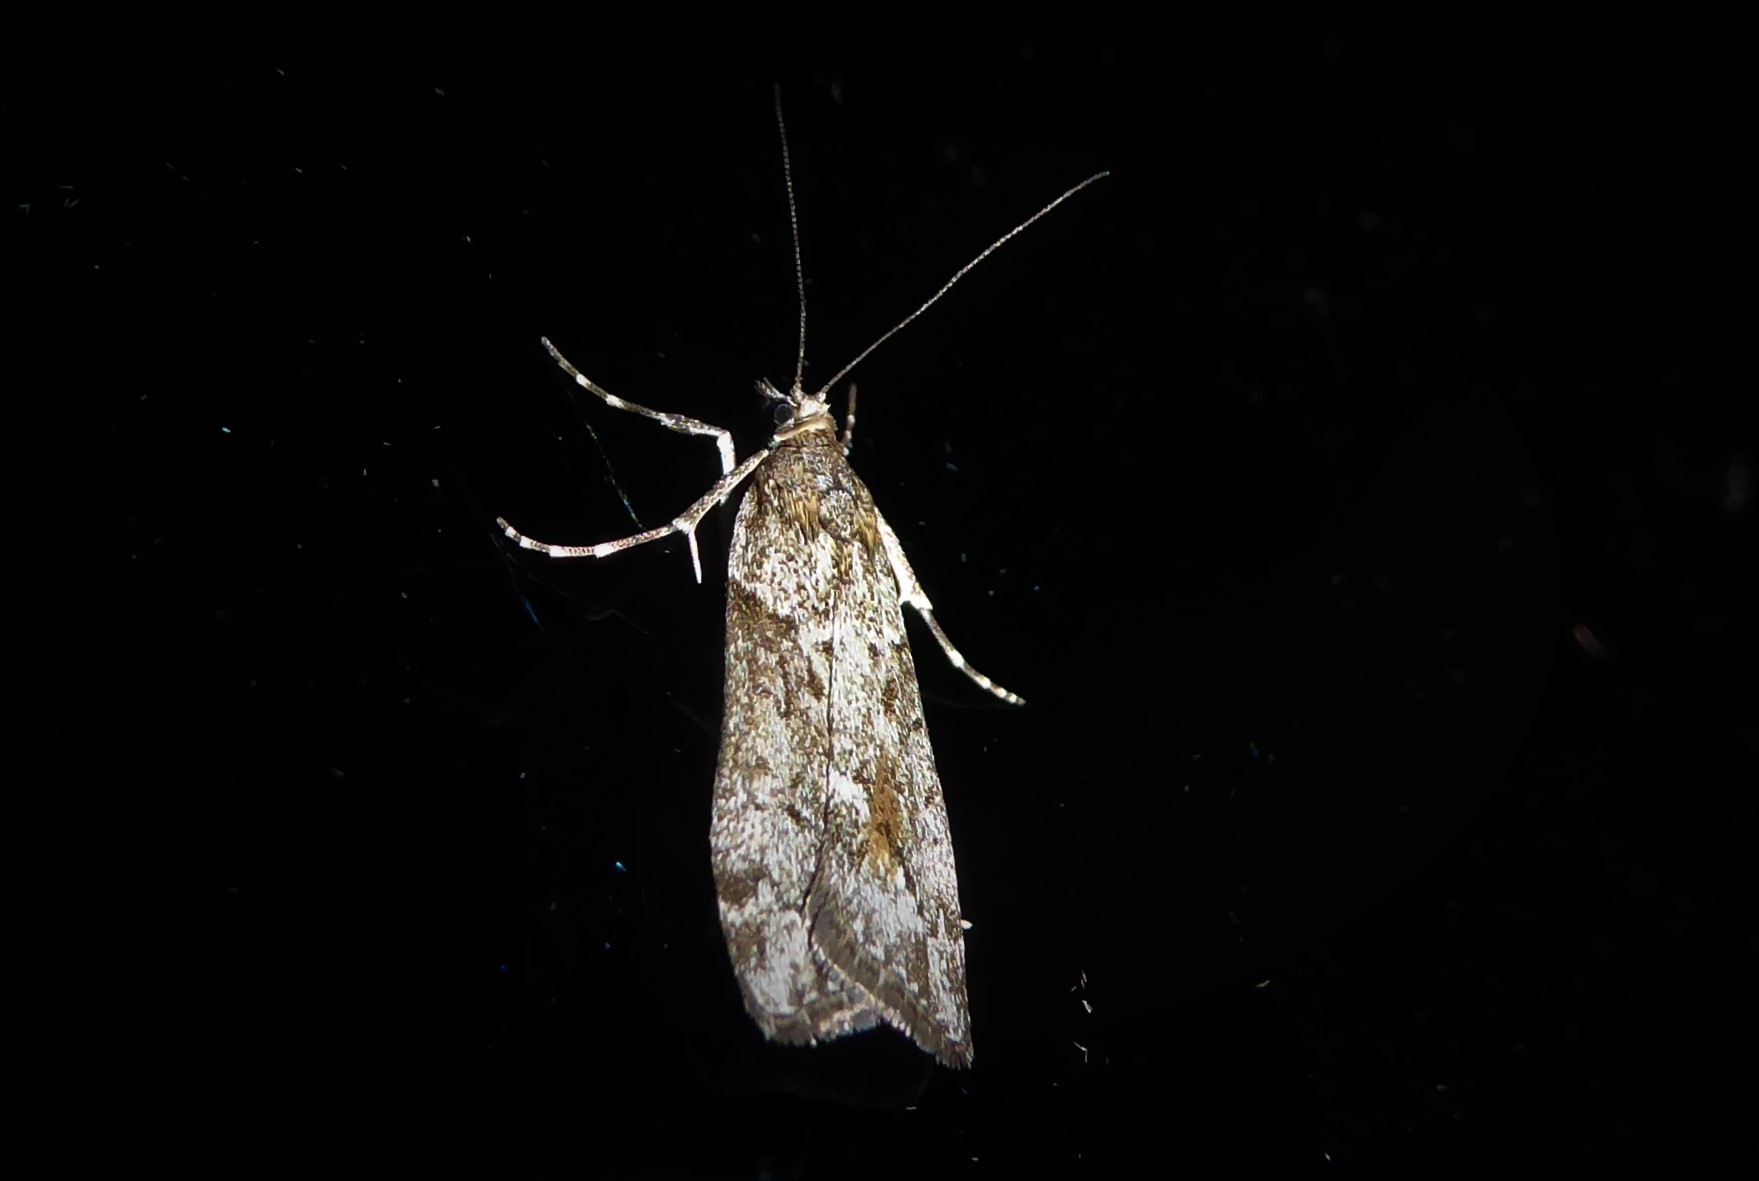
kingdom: Animalia
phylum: Arthropoda
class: Insecta
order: Lepidoptera
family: Crambidae
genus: Eudonia
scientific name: Eudonia submarginalis
